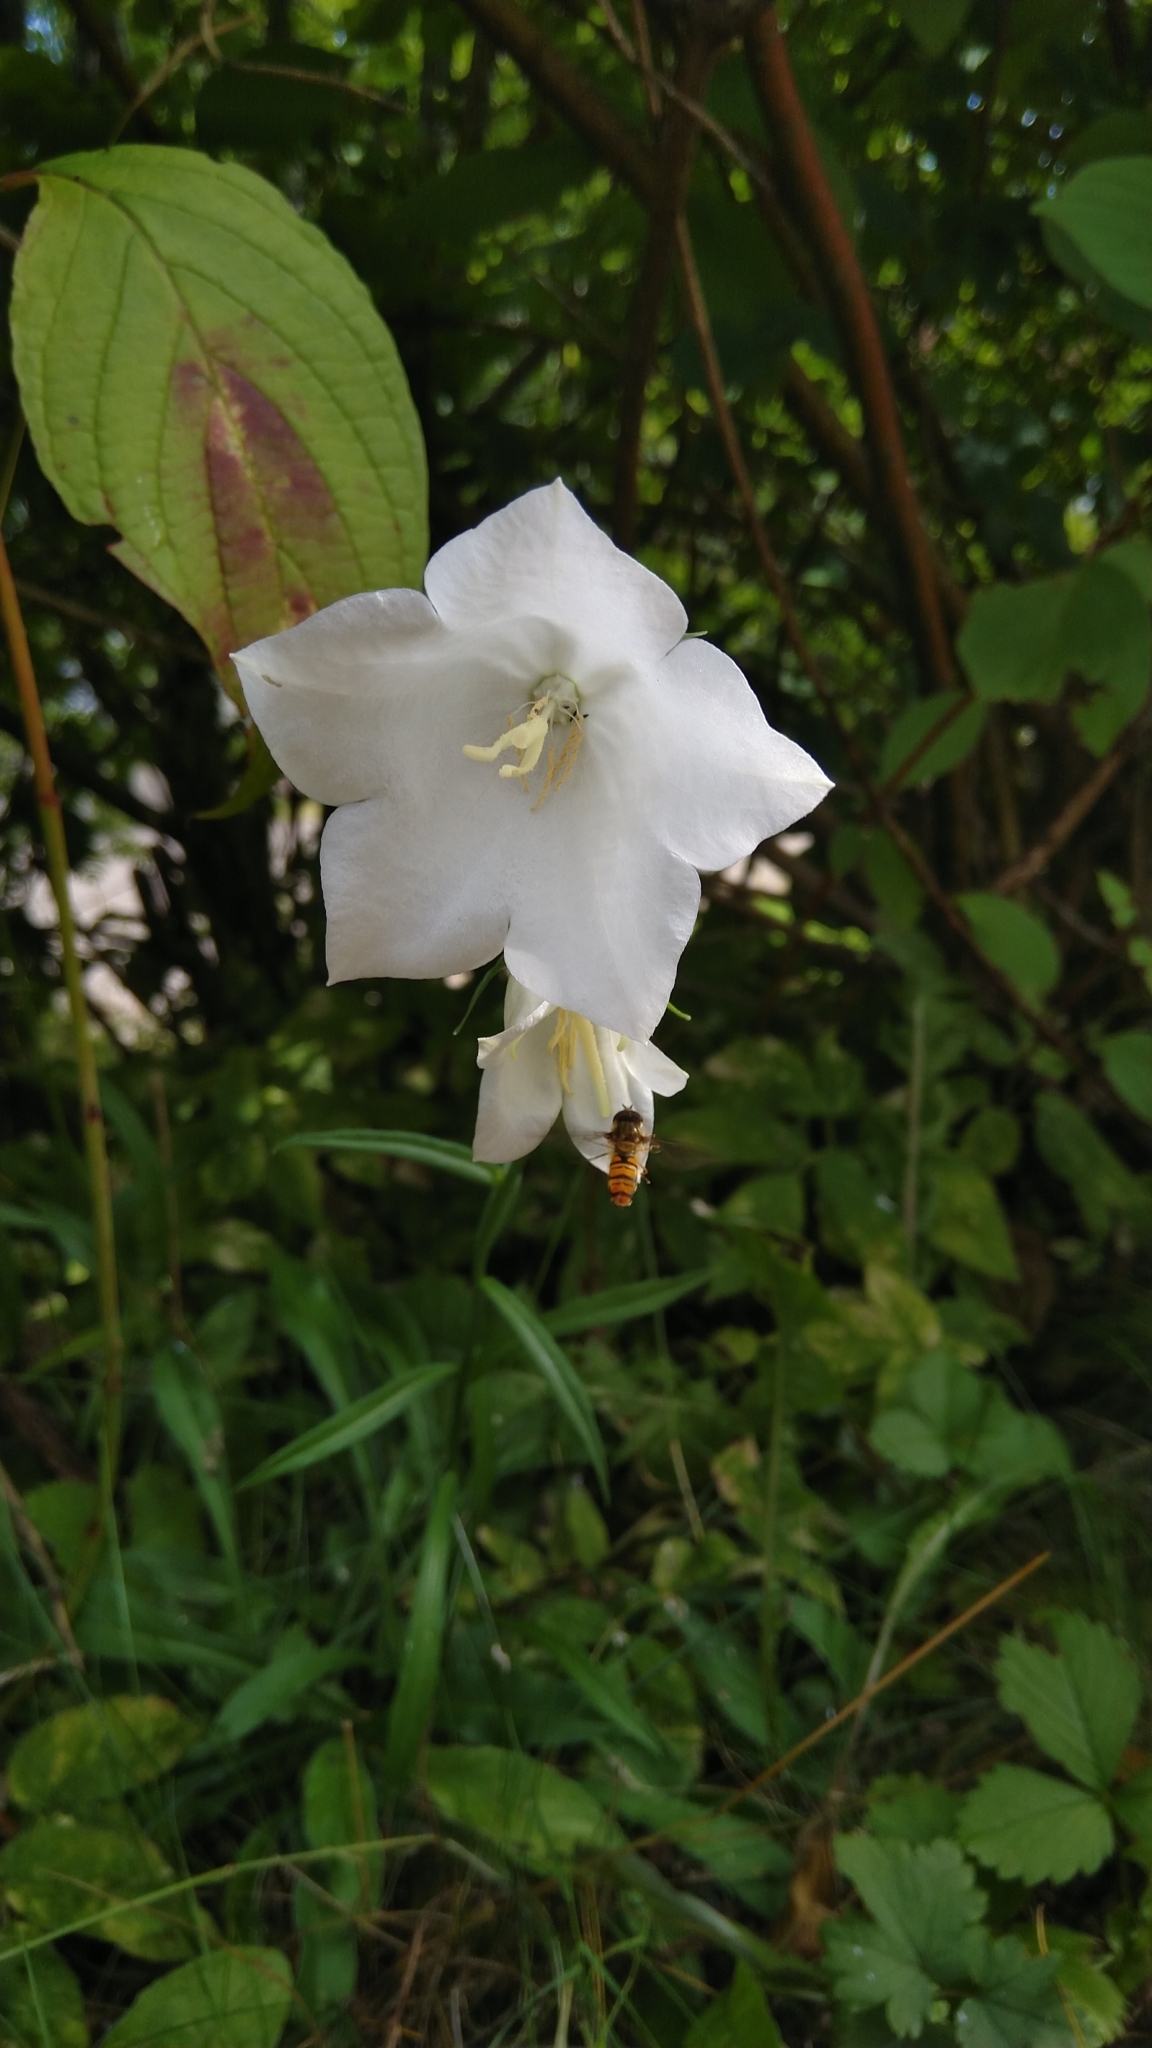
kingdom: Plantae
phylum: Tracheophyta
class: Magnoliopsida
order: Asterales
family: Campanulaceae
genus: Campanula
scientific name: Campanula persicifolia
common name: Peach-leaved bellflower
